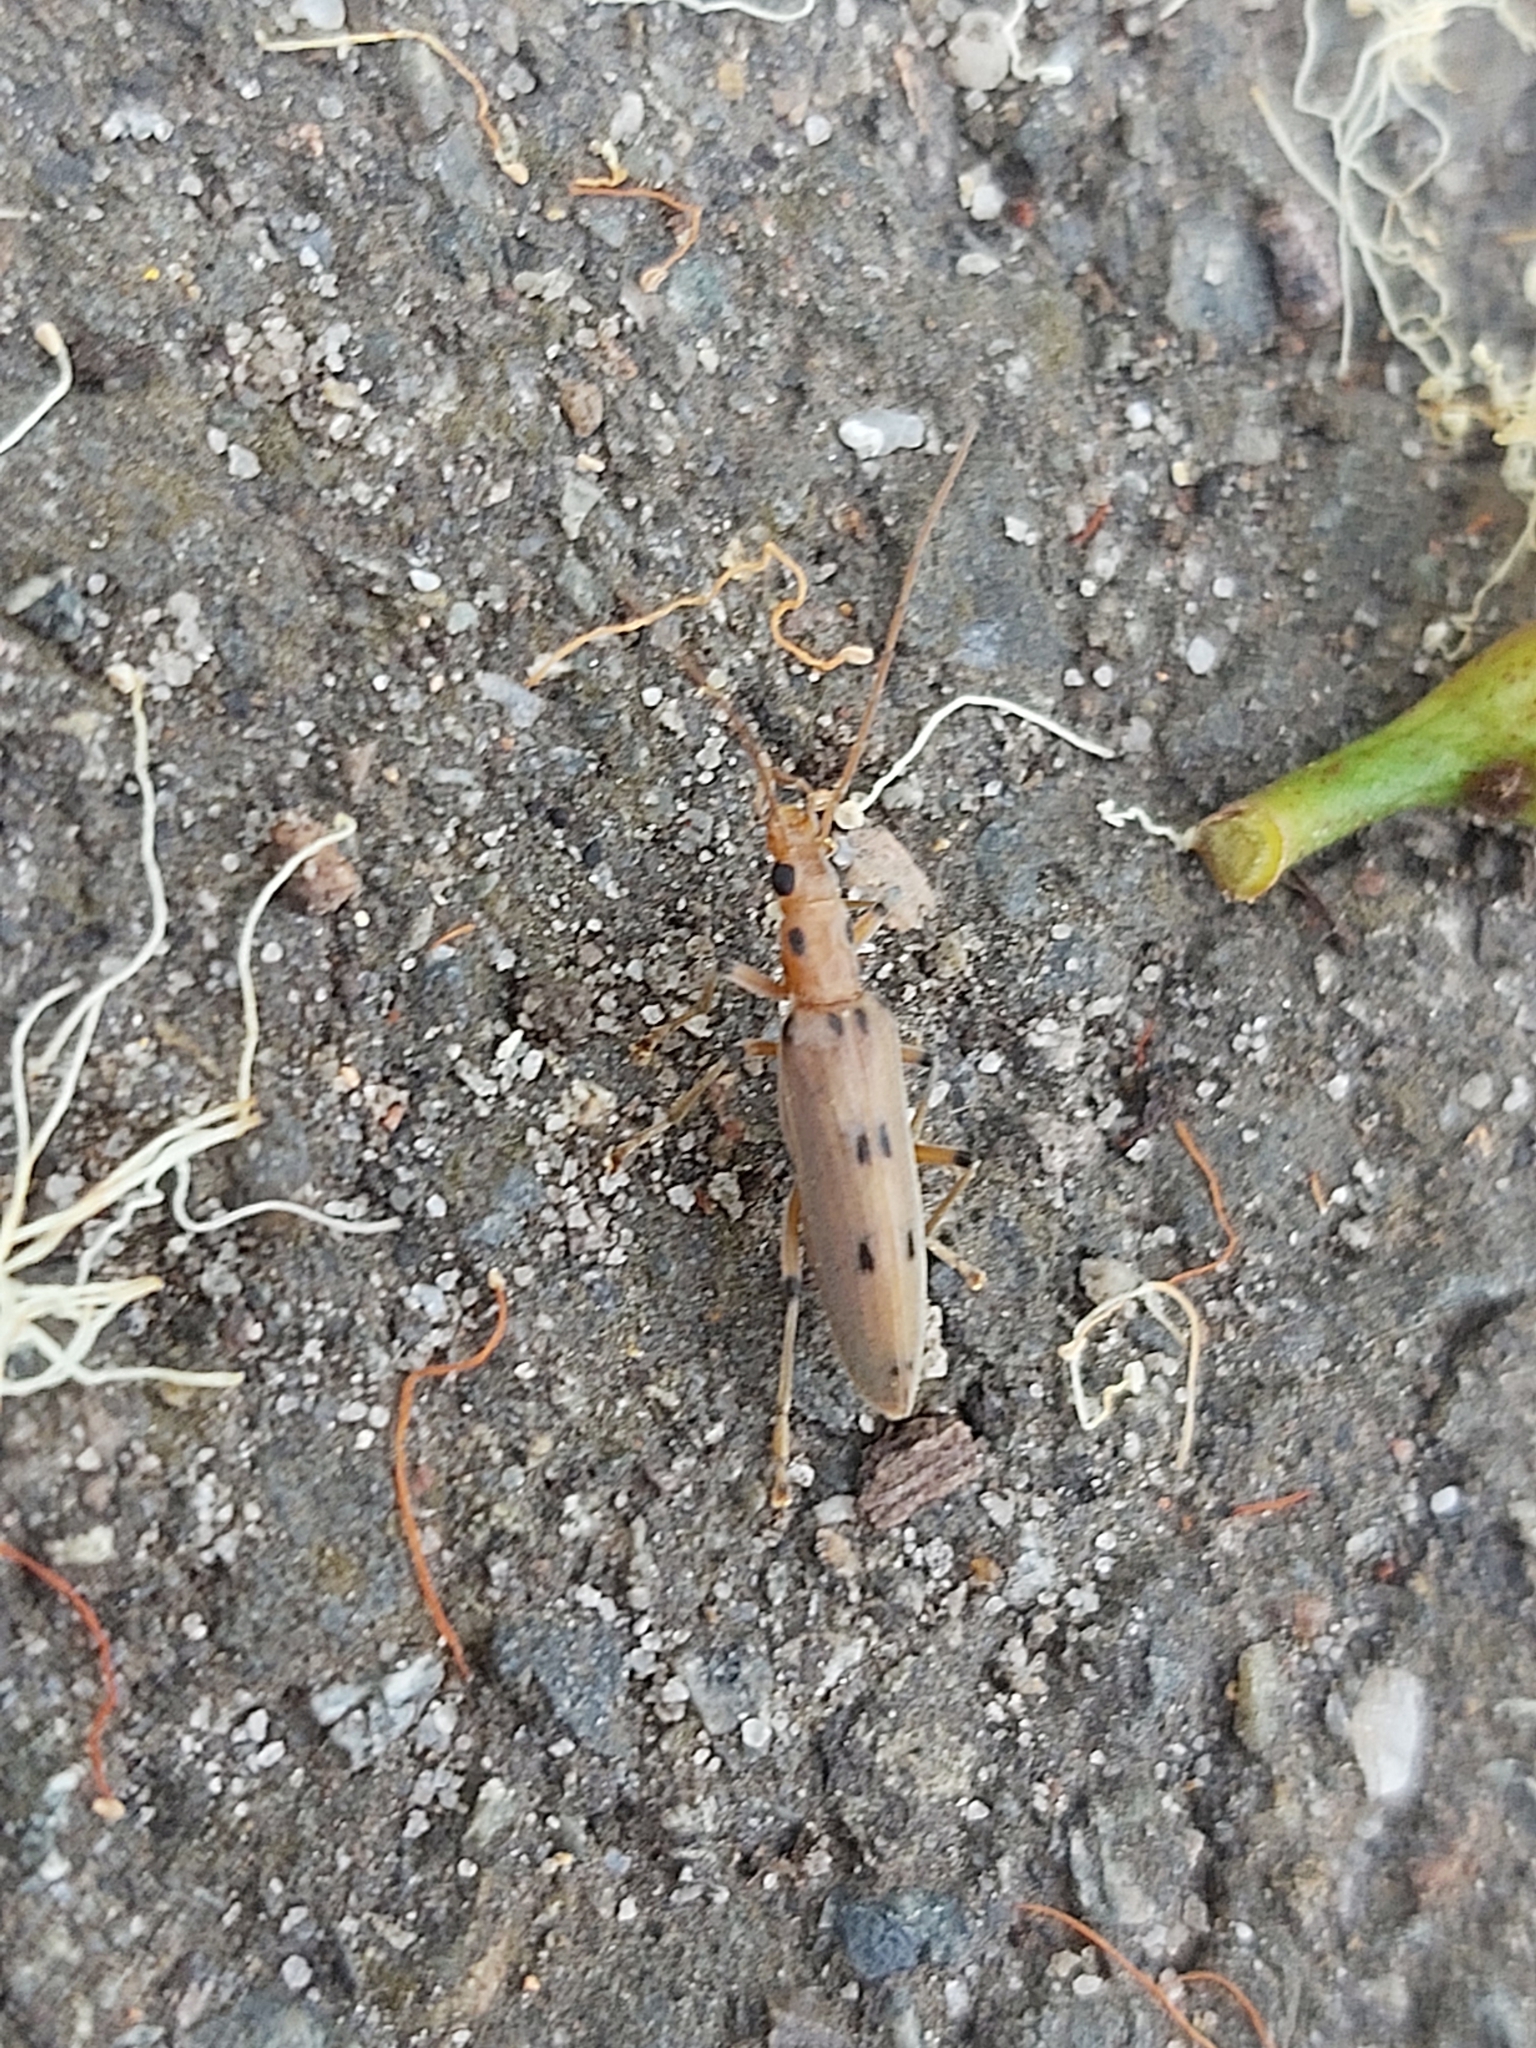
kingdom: Animalia
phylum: Arthropoda
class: Insecta
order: Coleoptera
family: Oedemeridae
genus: Parisopalpus
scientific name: Parisopalpus
